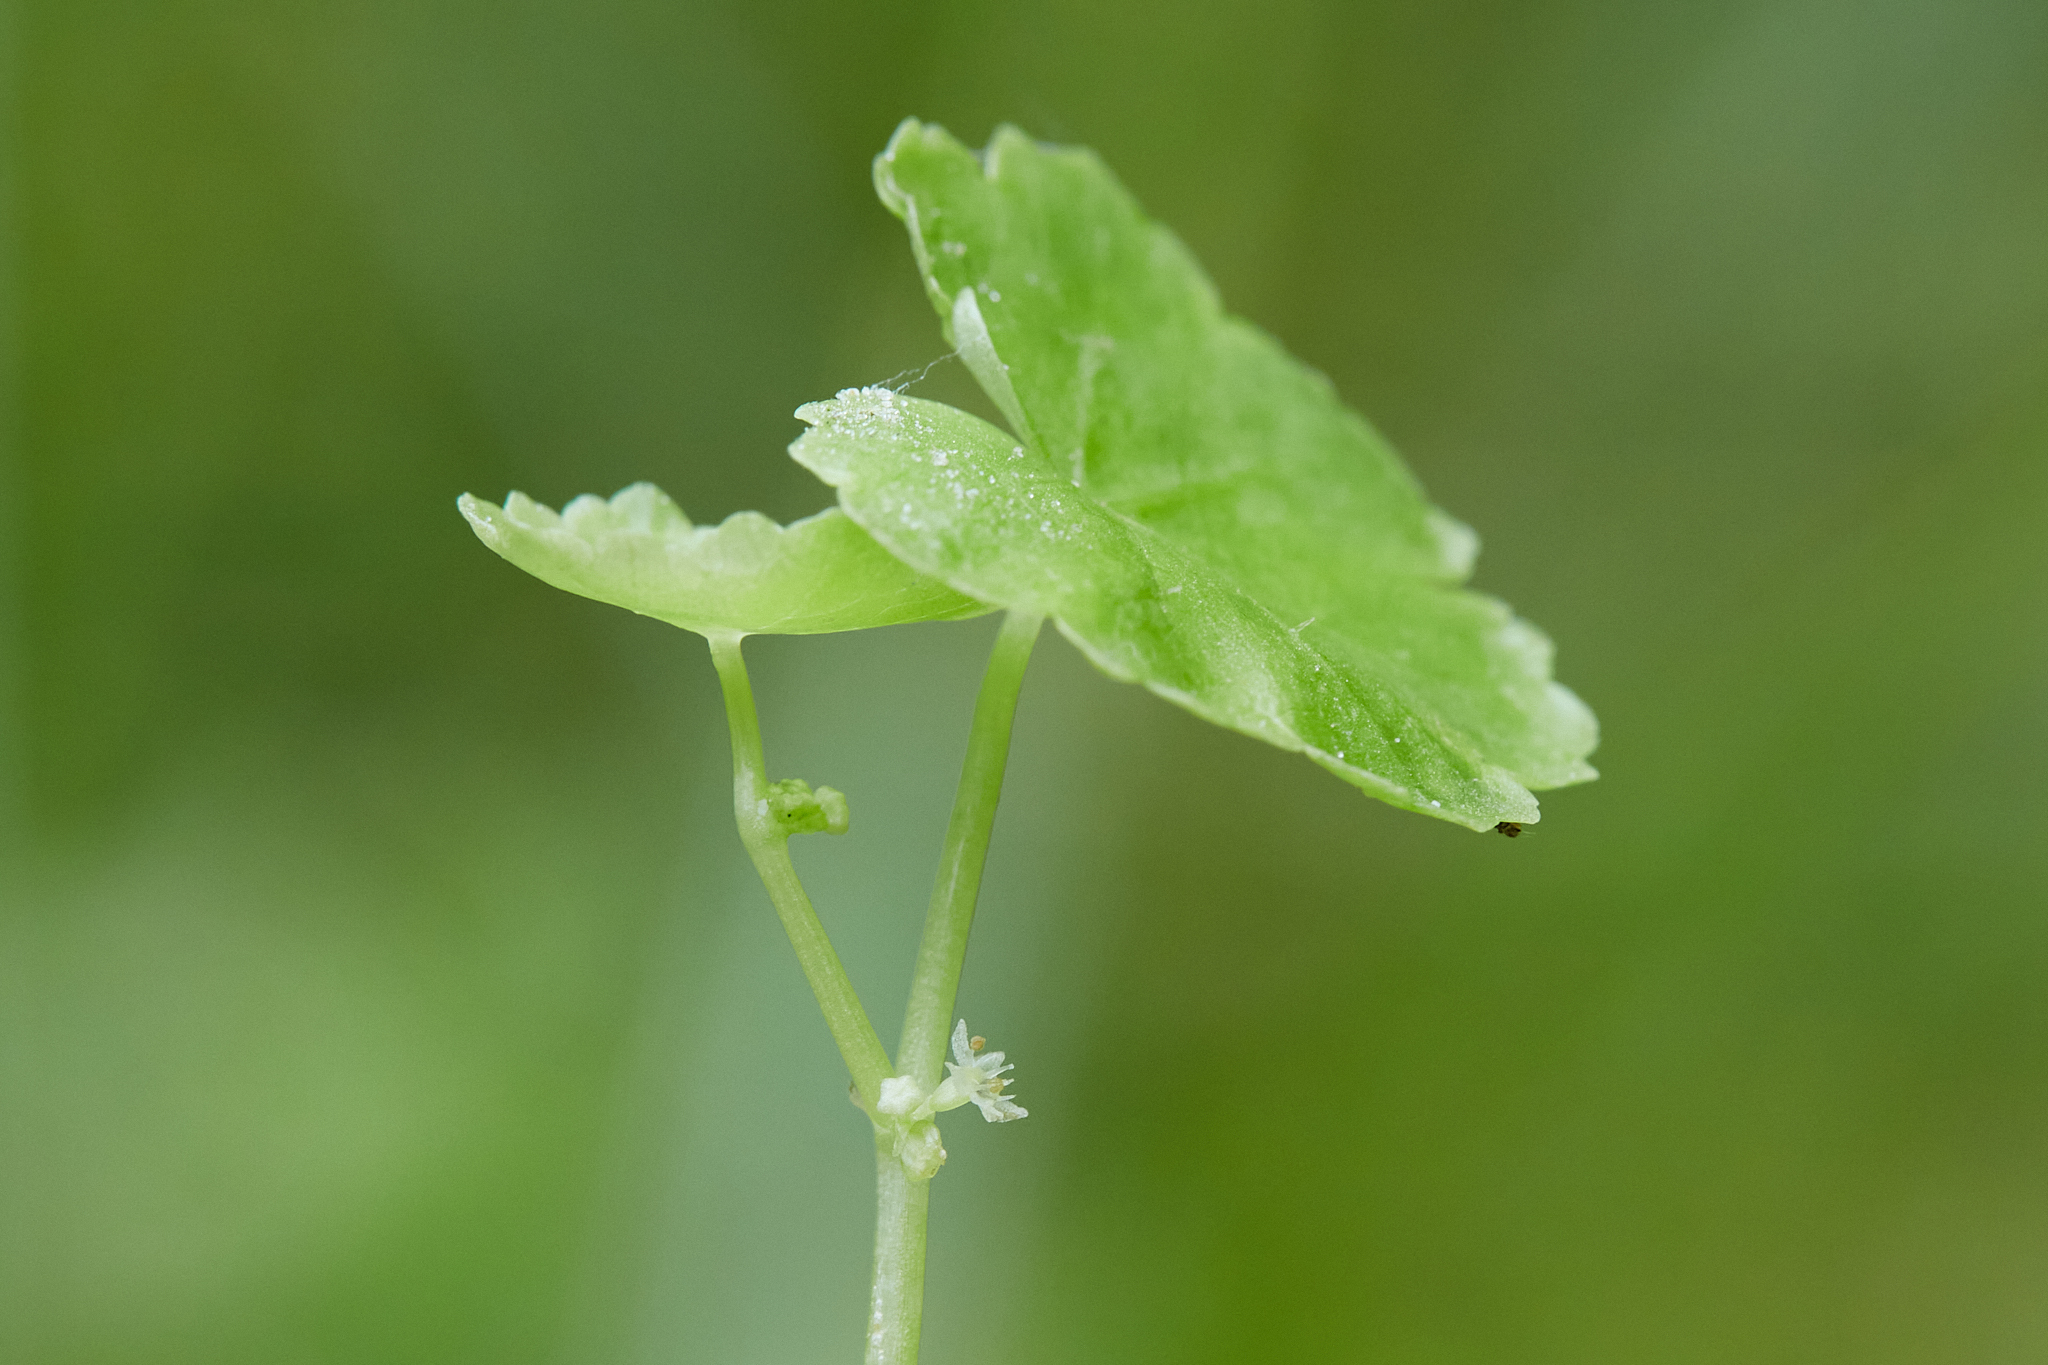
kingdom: Plantae
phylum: Tracheophyta
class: Magnoliopsida
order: Apiales
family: Araliaceae
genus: Hydrocotyle
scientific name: Hydrocotyle americana
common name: American water-pennywort
